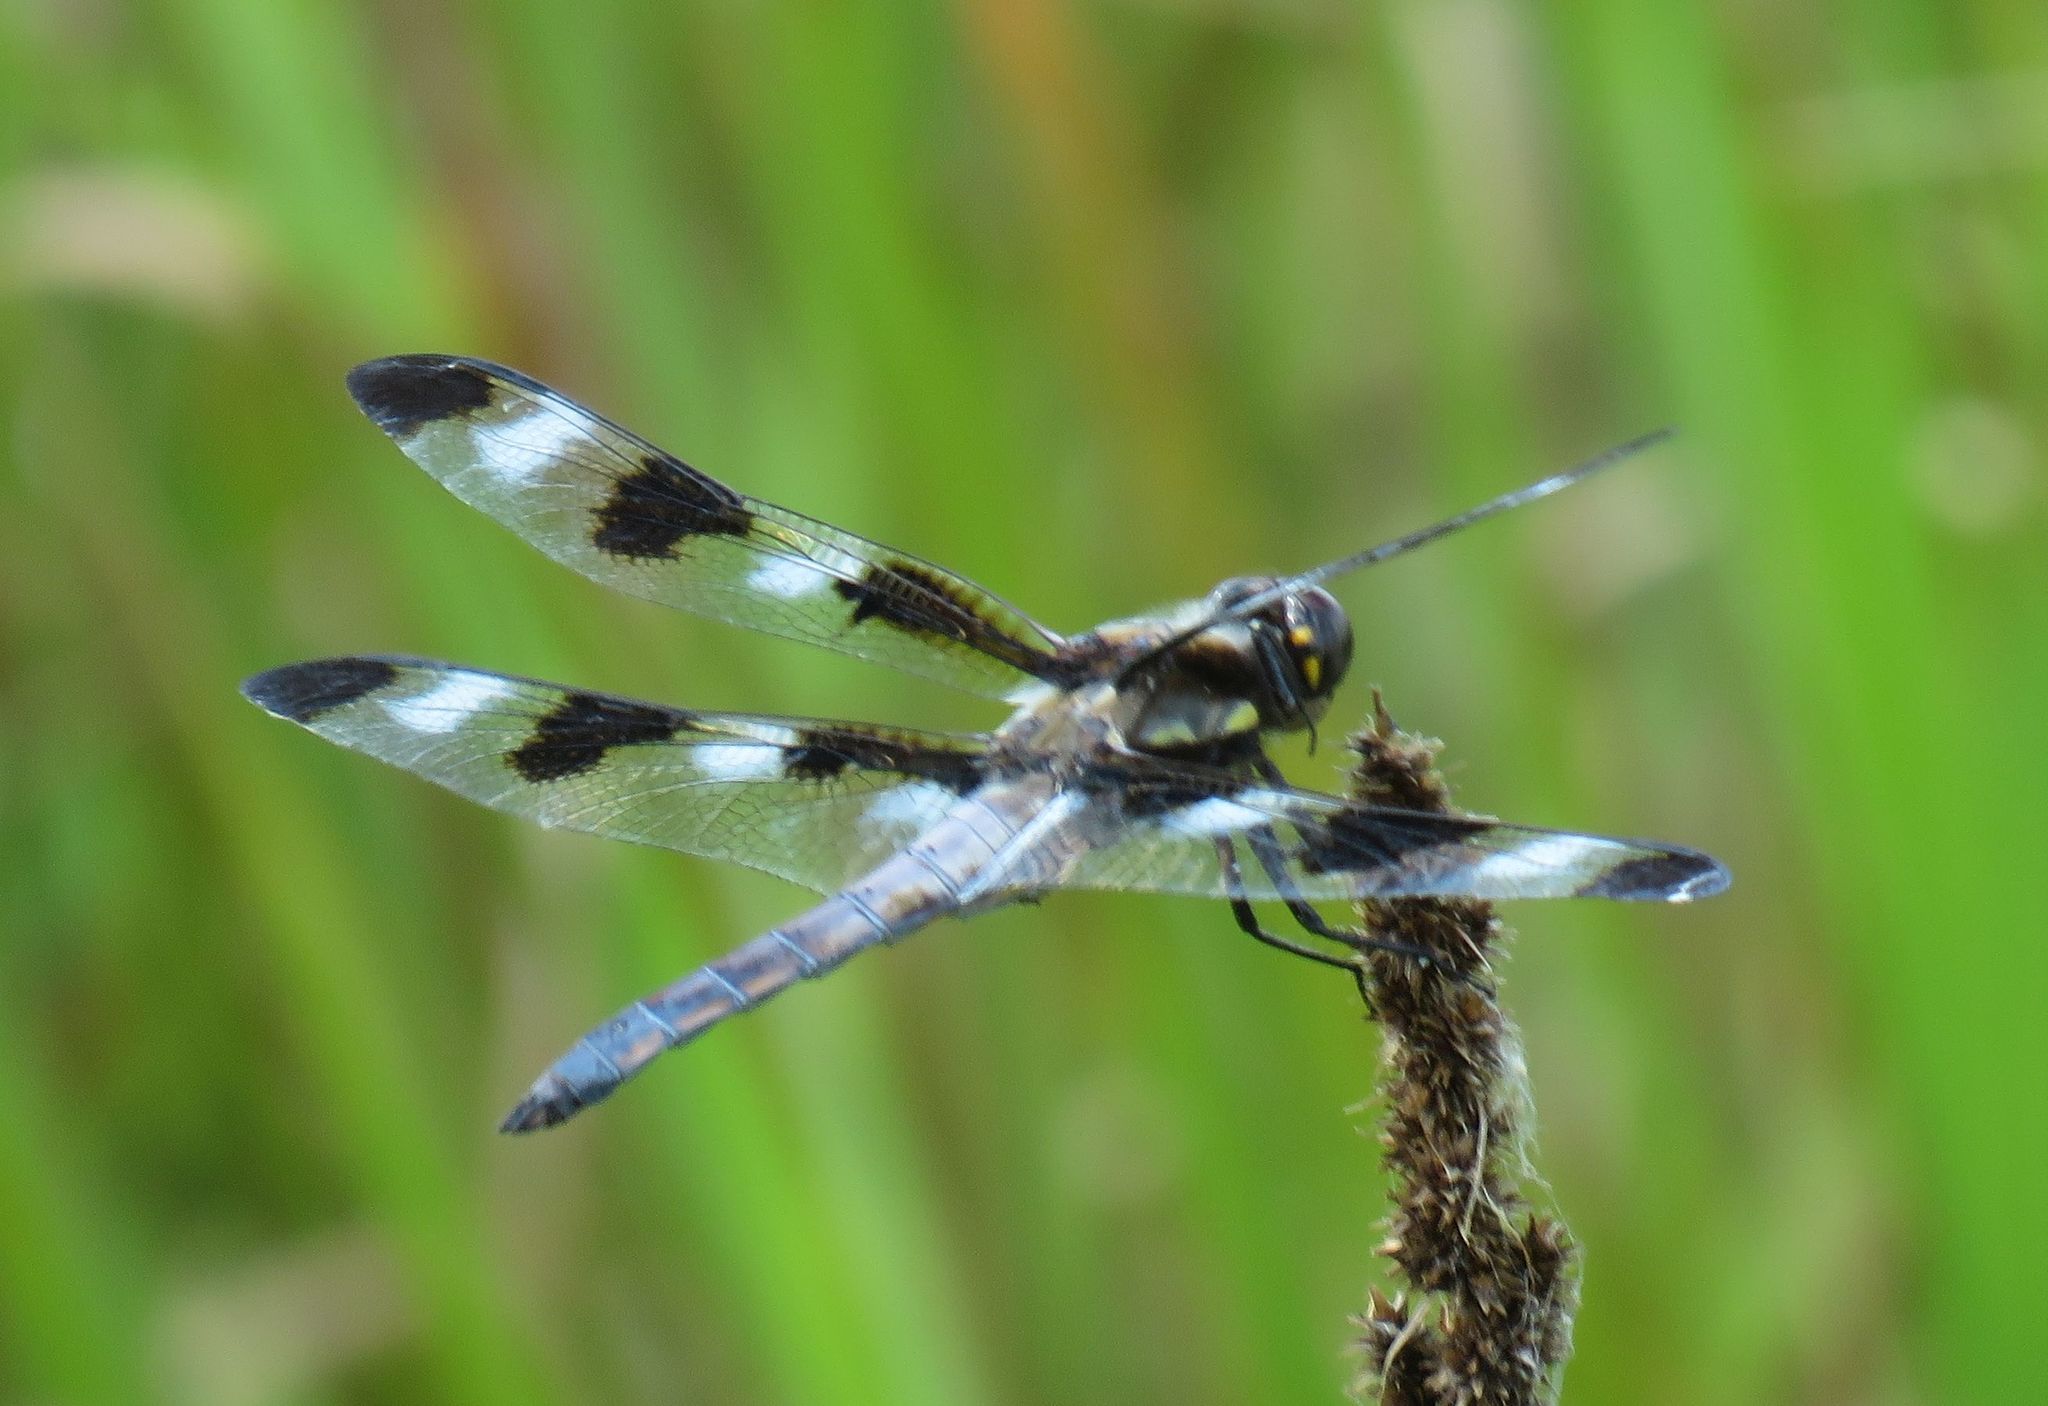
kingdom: Animalia
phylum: Arthropoda
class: Insecta
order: Odonata
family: Libellulidae
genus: Libellula
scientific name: Libellula pulchella
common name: Twelve-spotted skimmer
